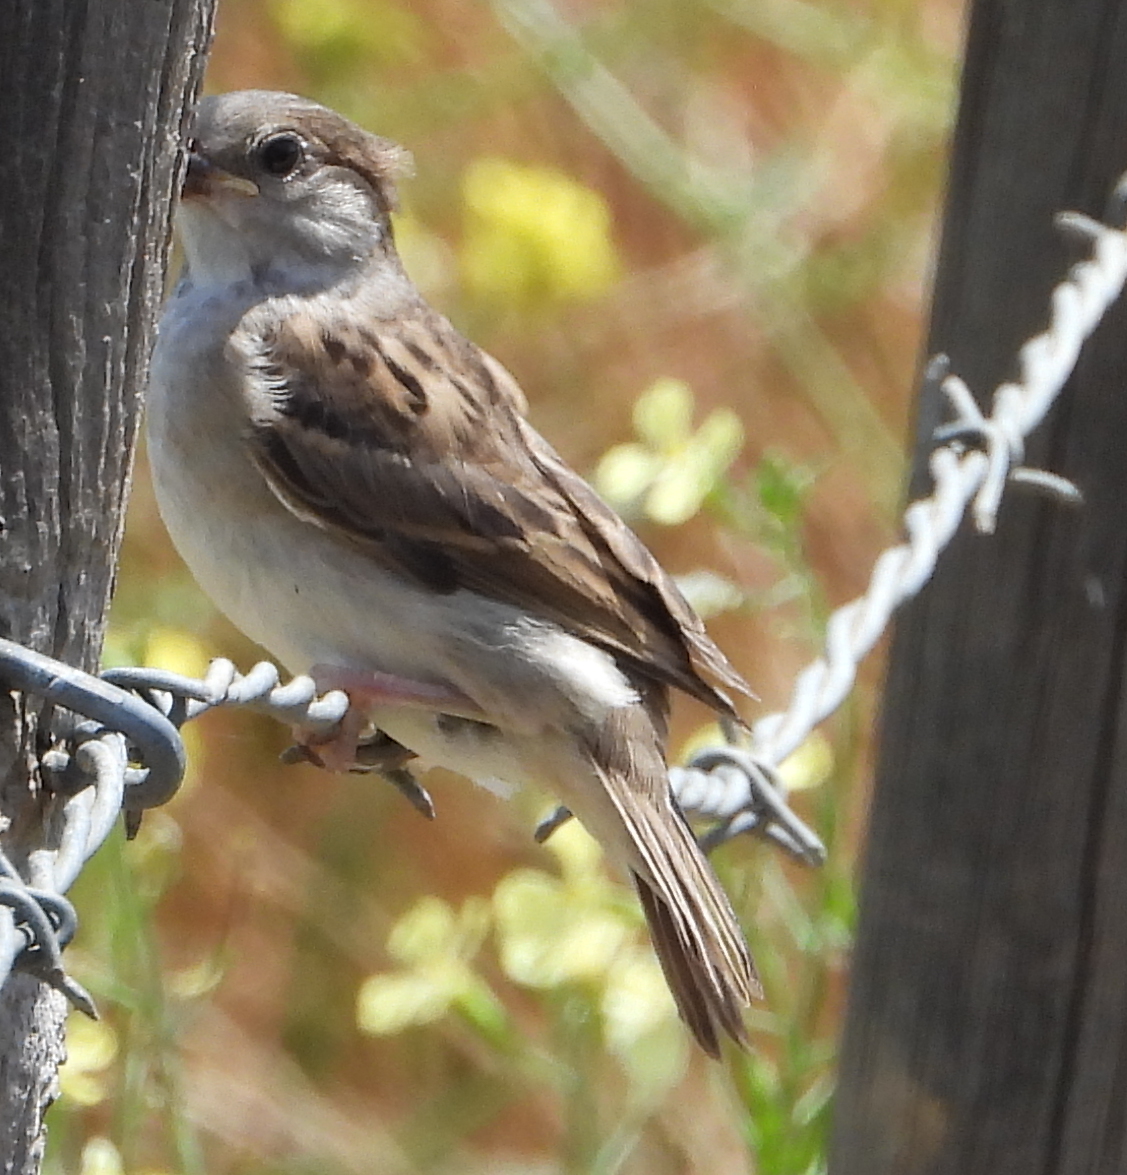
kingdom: Animalia
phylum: Chordata
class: Aves
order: Passeriformes
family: Passeridae
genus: Passer
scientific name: Passer domesticus
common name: House sparrow
